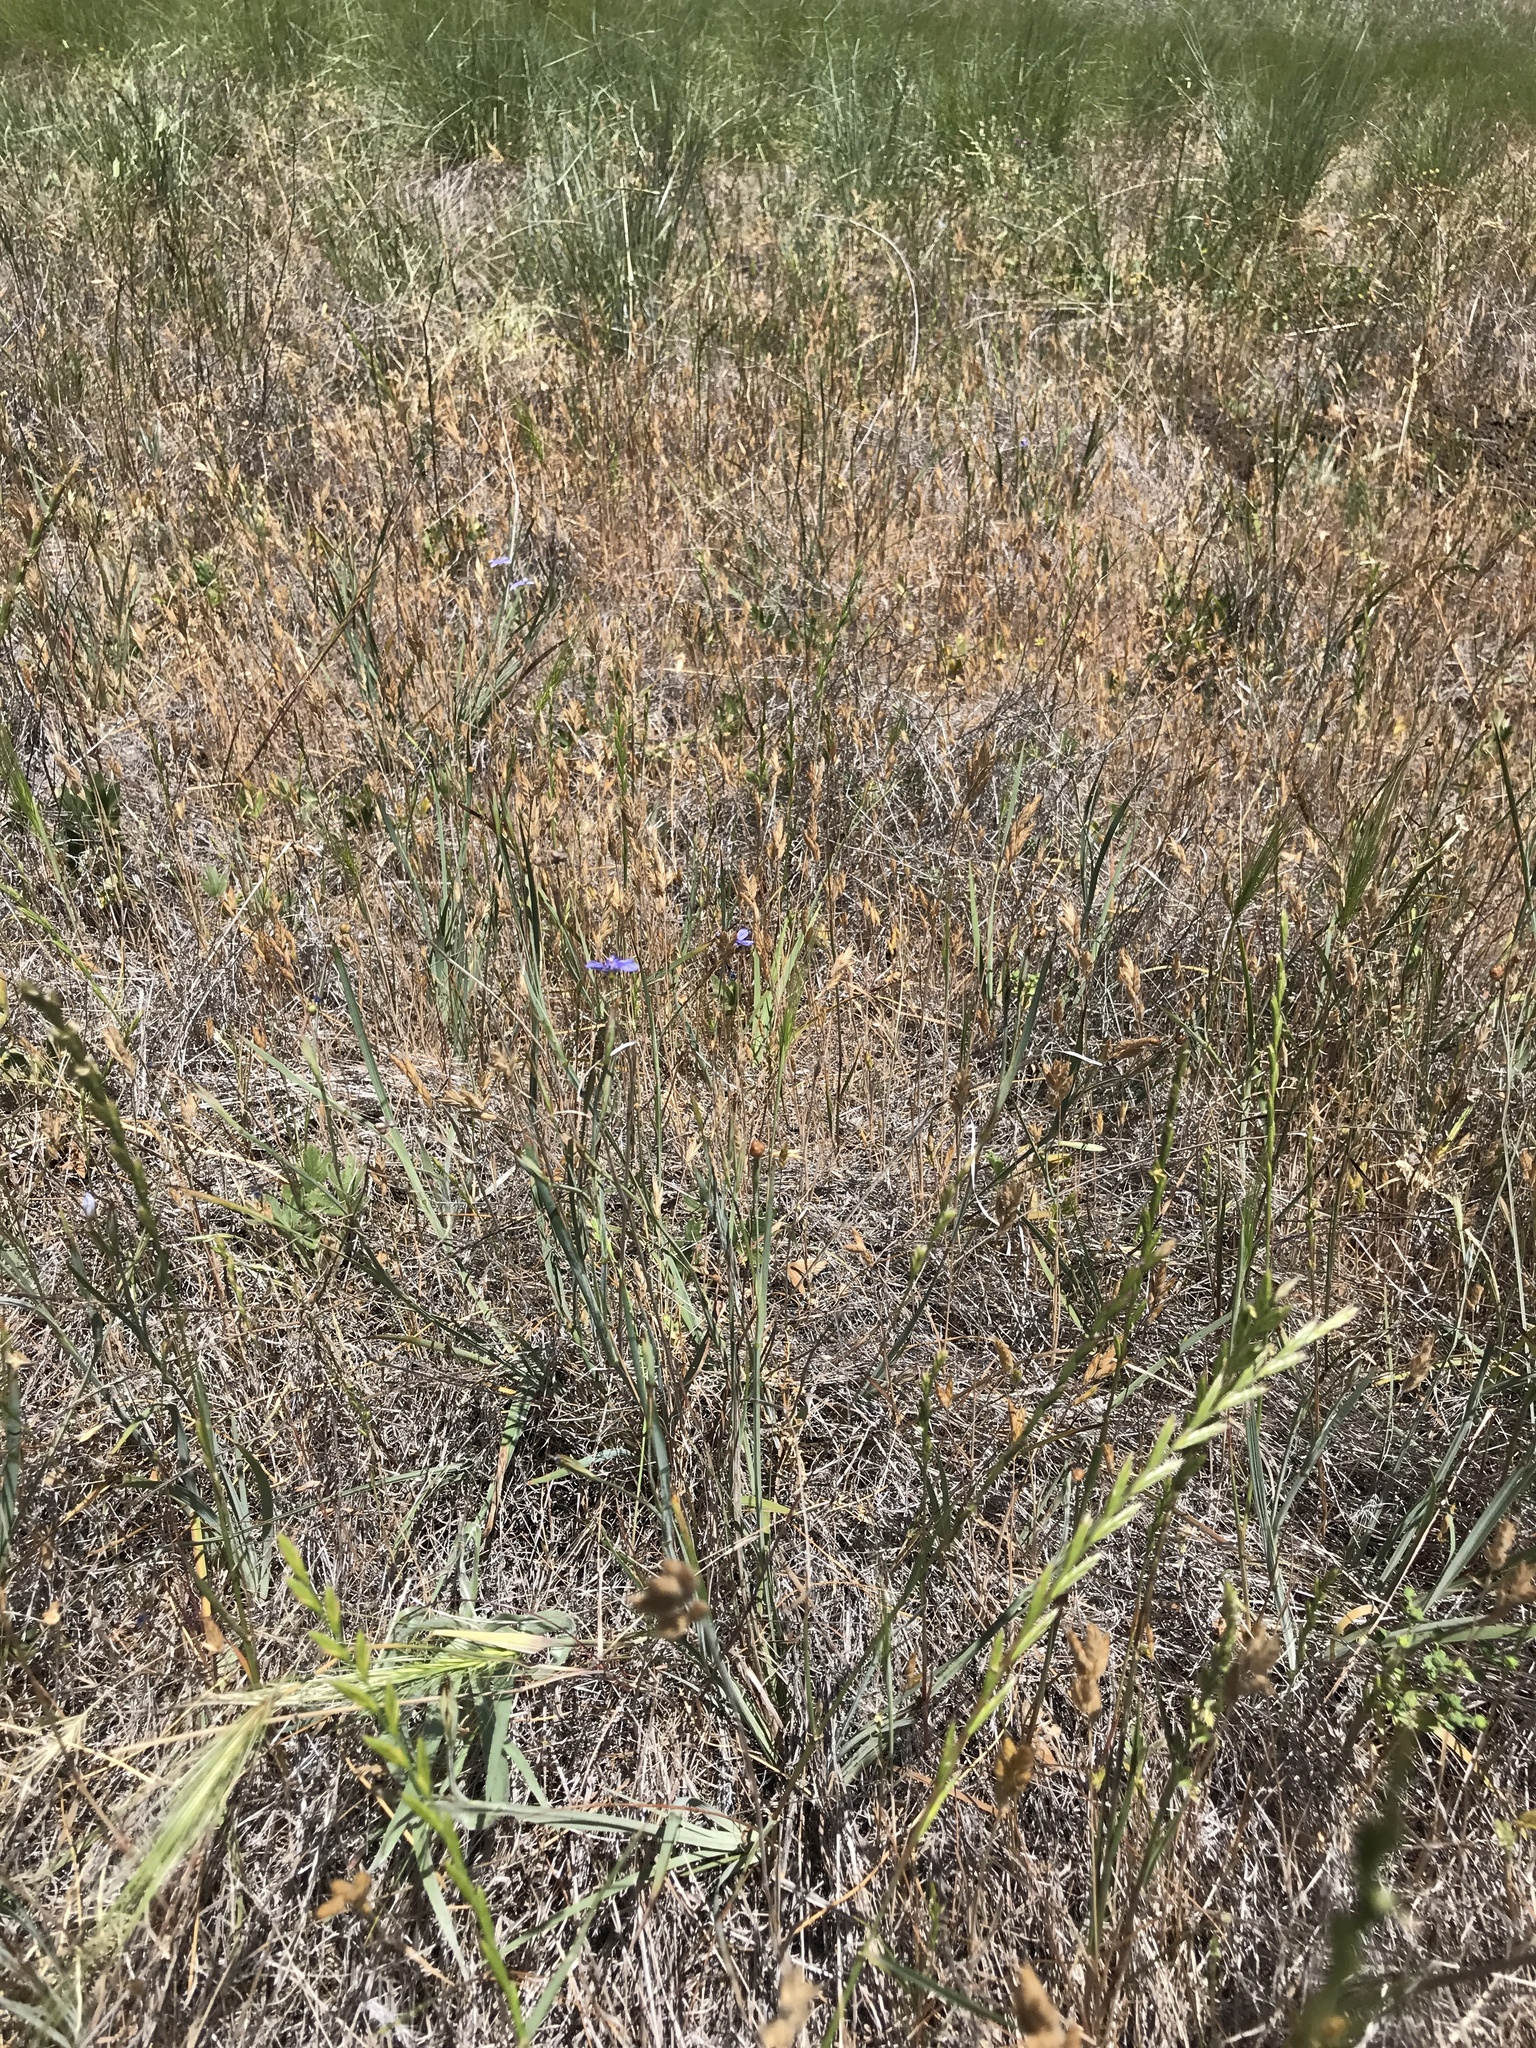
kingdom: Plantae
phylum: Tracheophyta
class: Liliopsida
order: Asparagales
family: Iridaceae
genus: Sisyrinchium
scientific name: Sisyrinchium bellum
